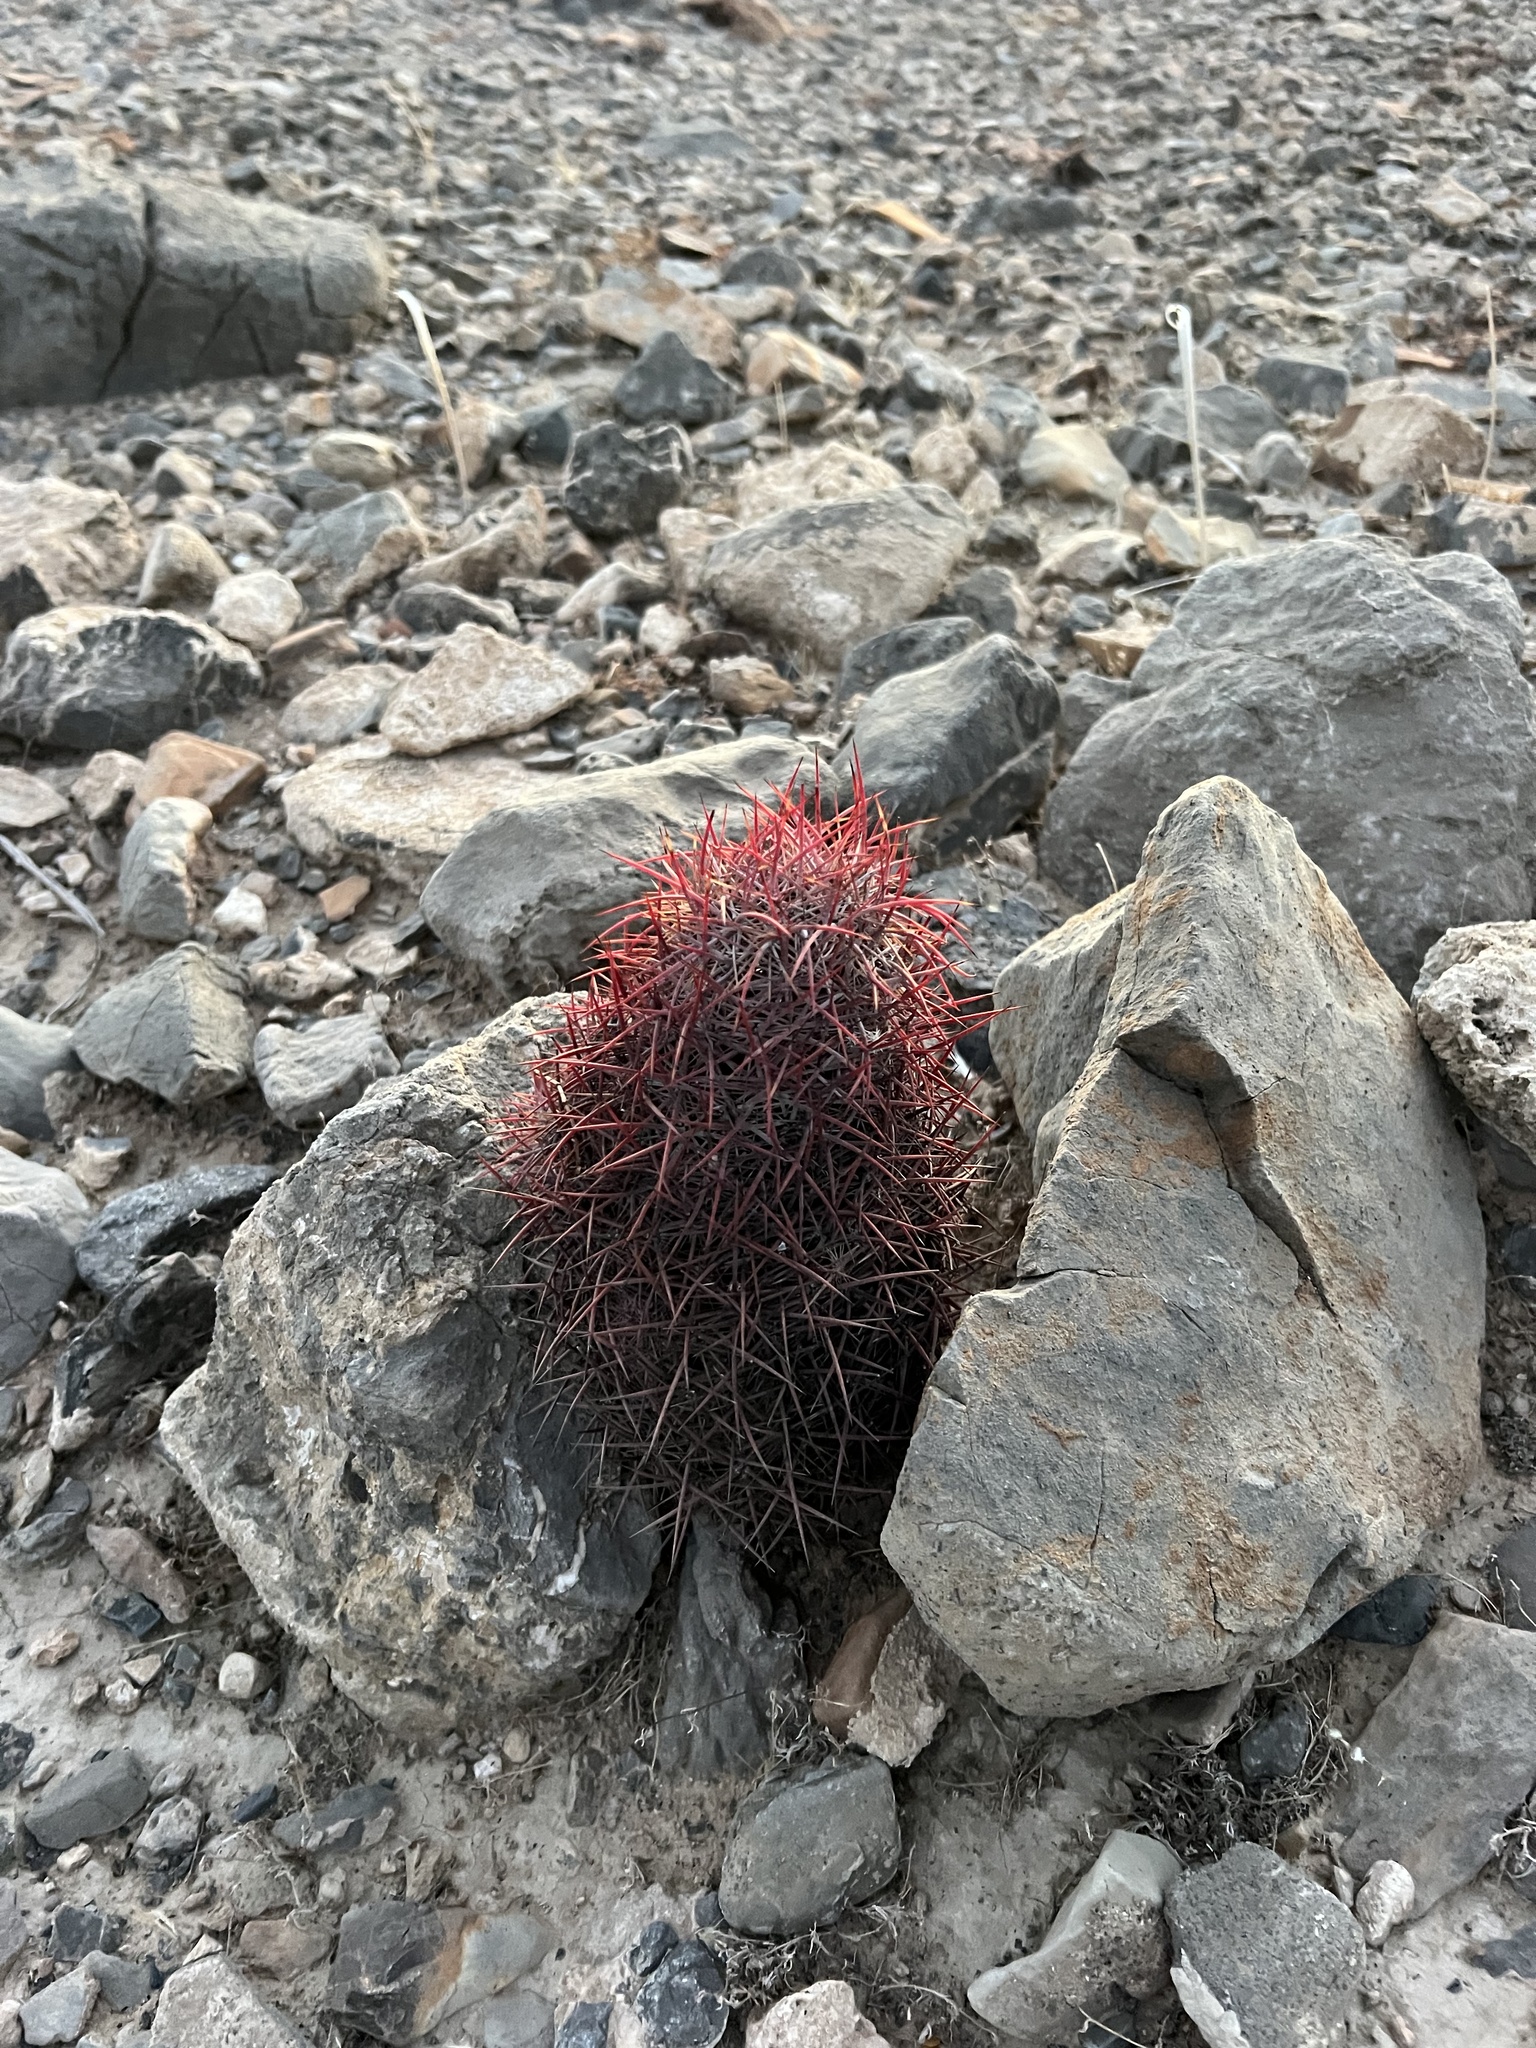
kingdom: Plantae
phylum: Tracheophyta
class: Magnoliopsida
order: Caryophyllales
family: Cactaceae
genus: Sclerocactus
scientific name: Sclerocactus johnsonii
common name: Eight-spine fishhook cactus
